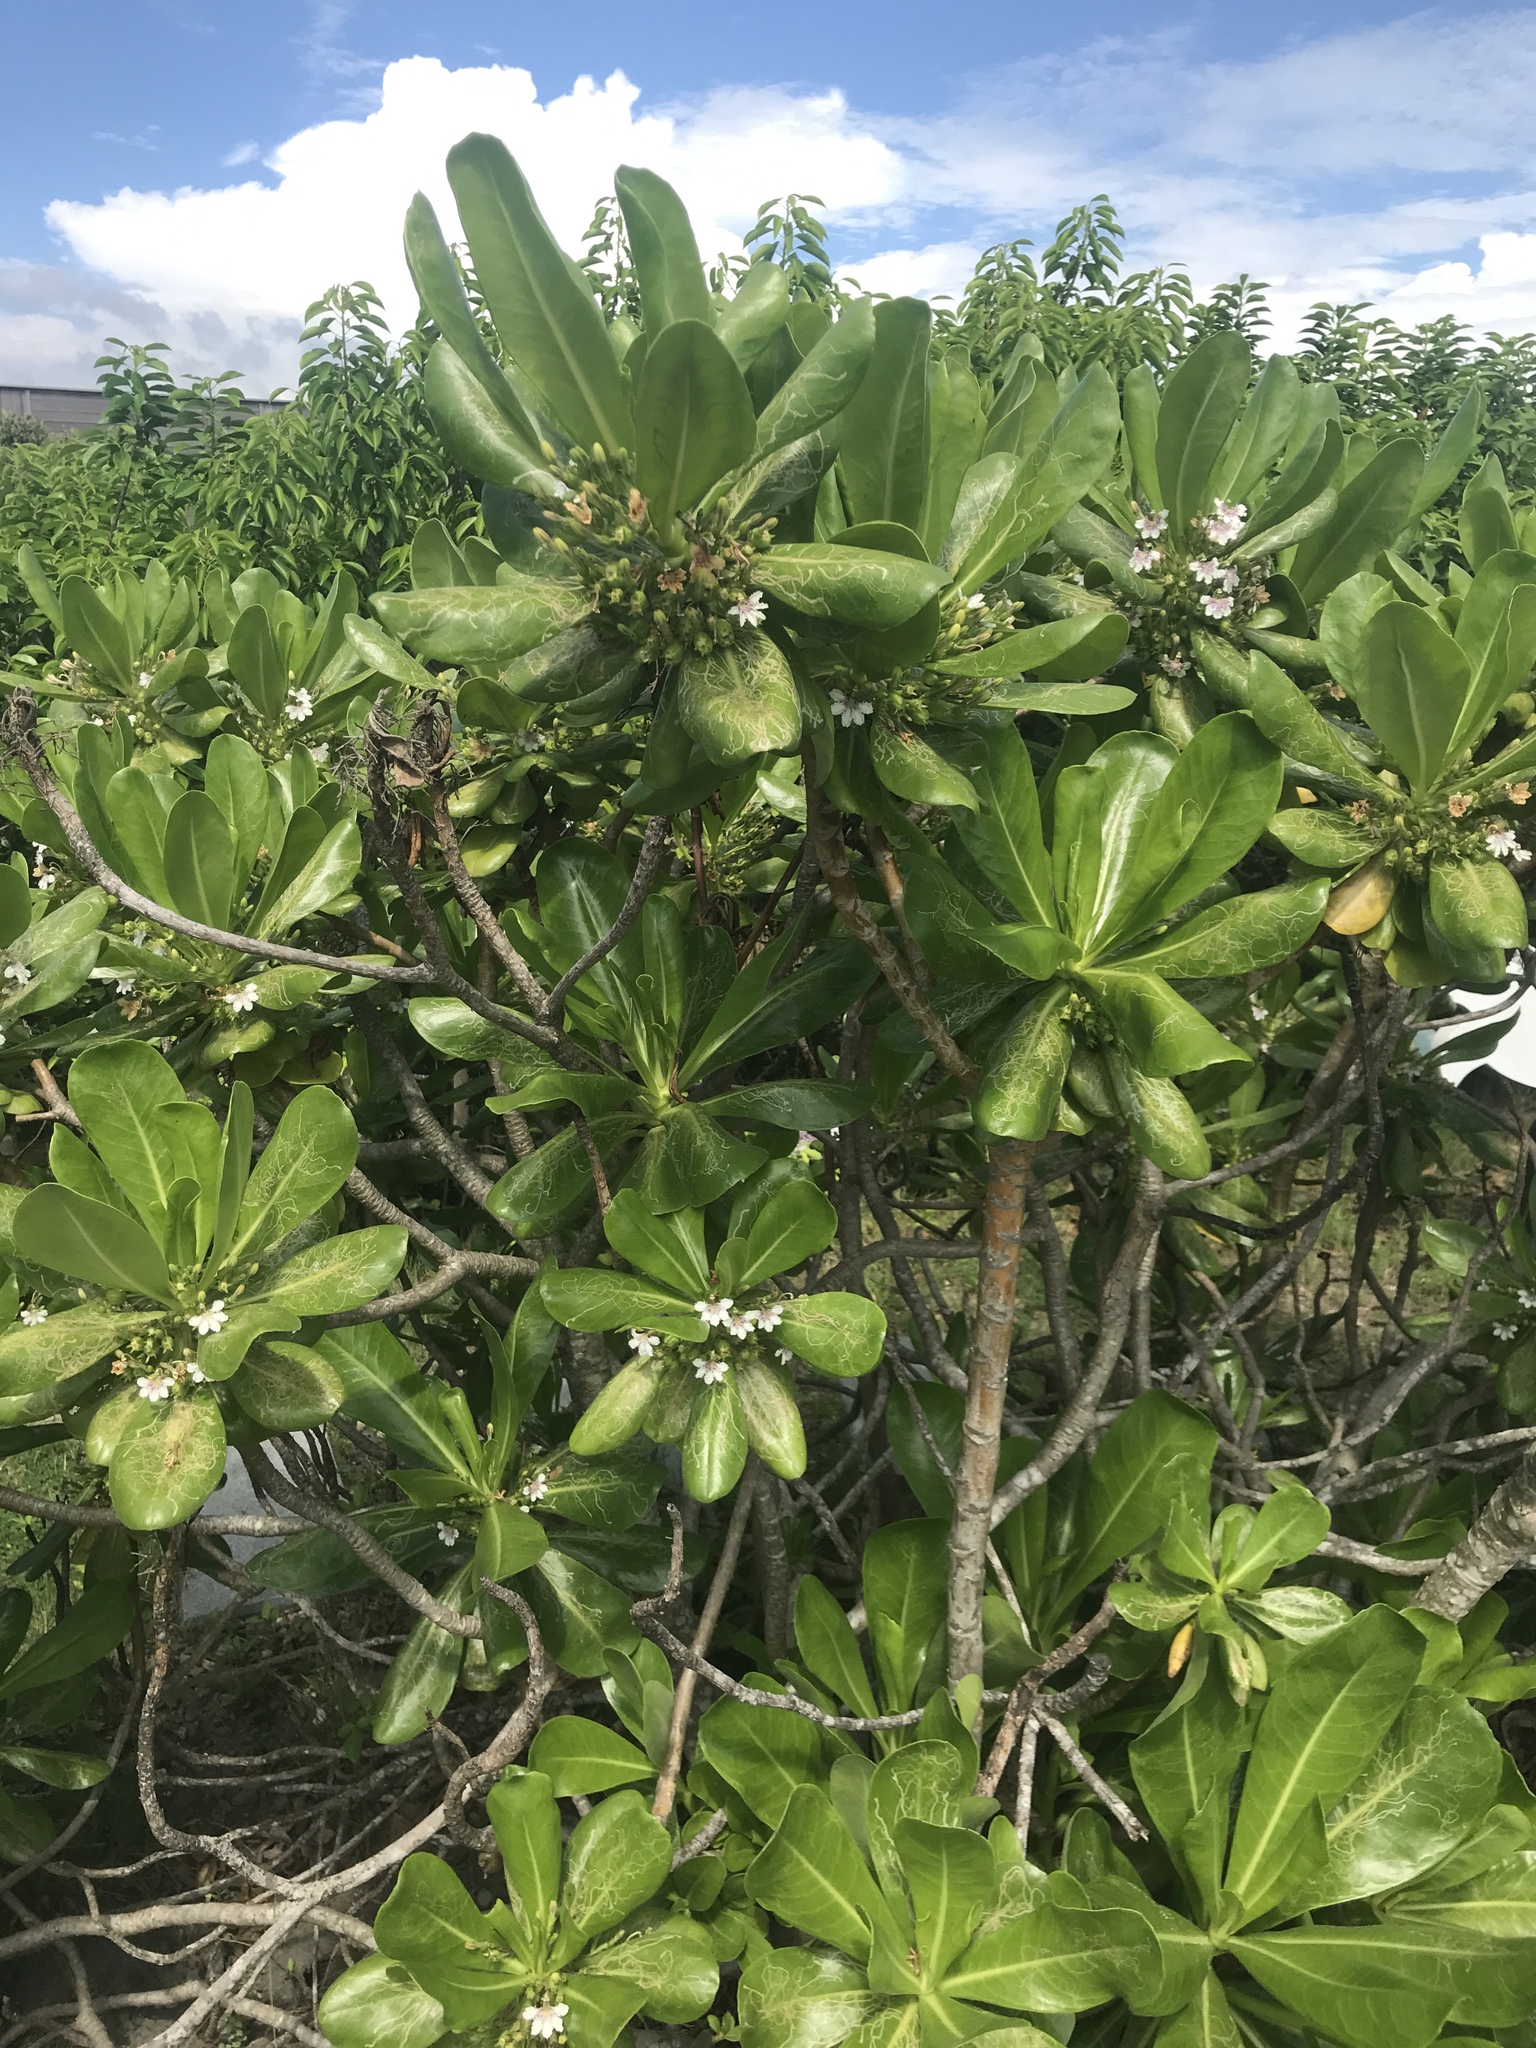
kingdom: Plantae
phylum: Tracheophyta
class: Magnoliopsida
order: Asterales
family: Goodeniaceae
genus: Scaevola
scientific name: Scaevola taccada
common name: Sea lettucetree
